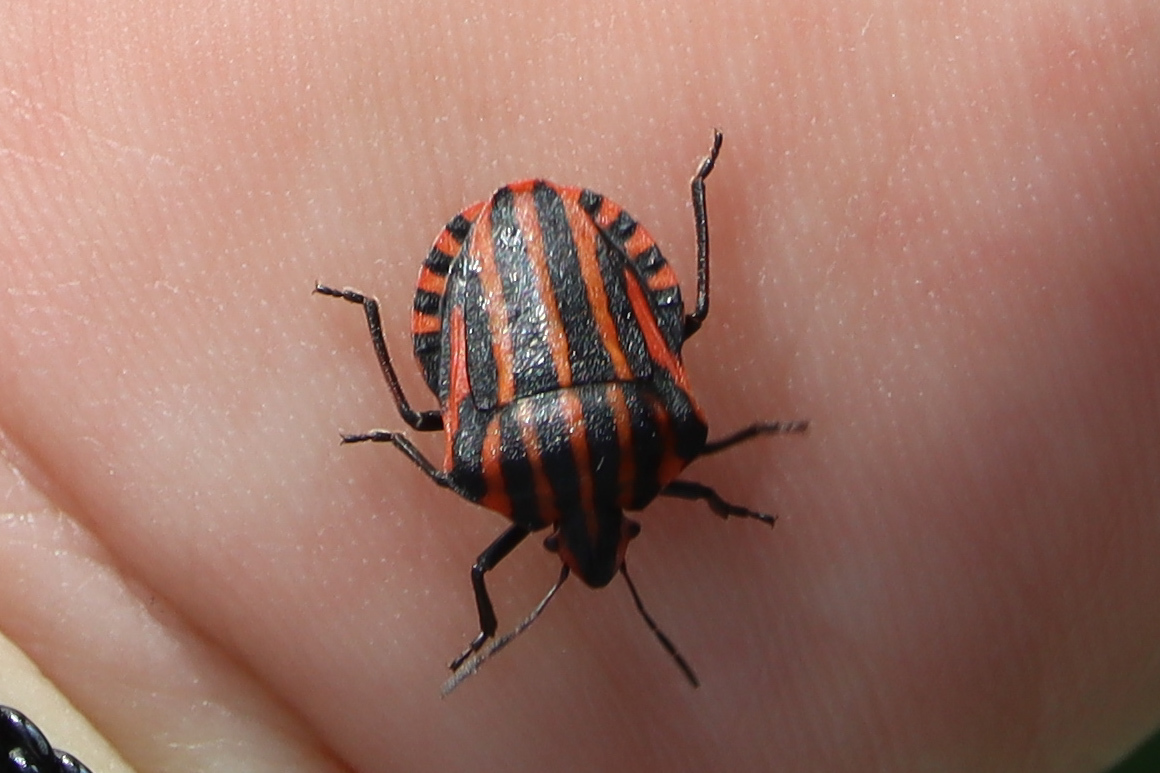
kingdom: Animalia
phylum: Arthropoda
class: Insecta
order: Hemiptera
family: Pentatomidae
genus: Graphosoma
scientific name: Graphosoma italicum
